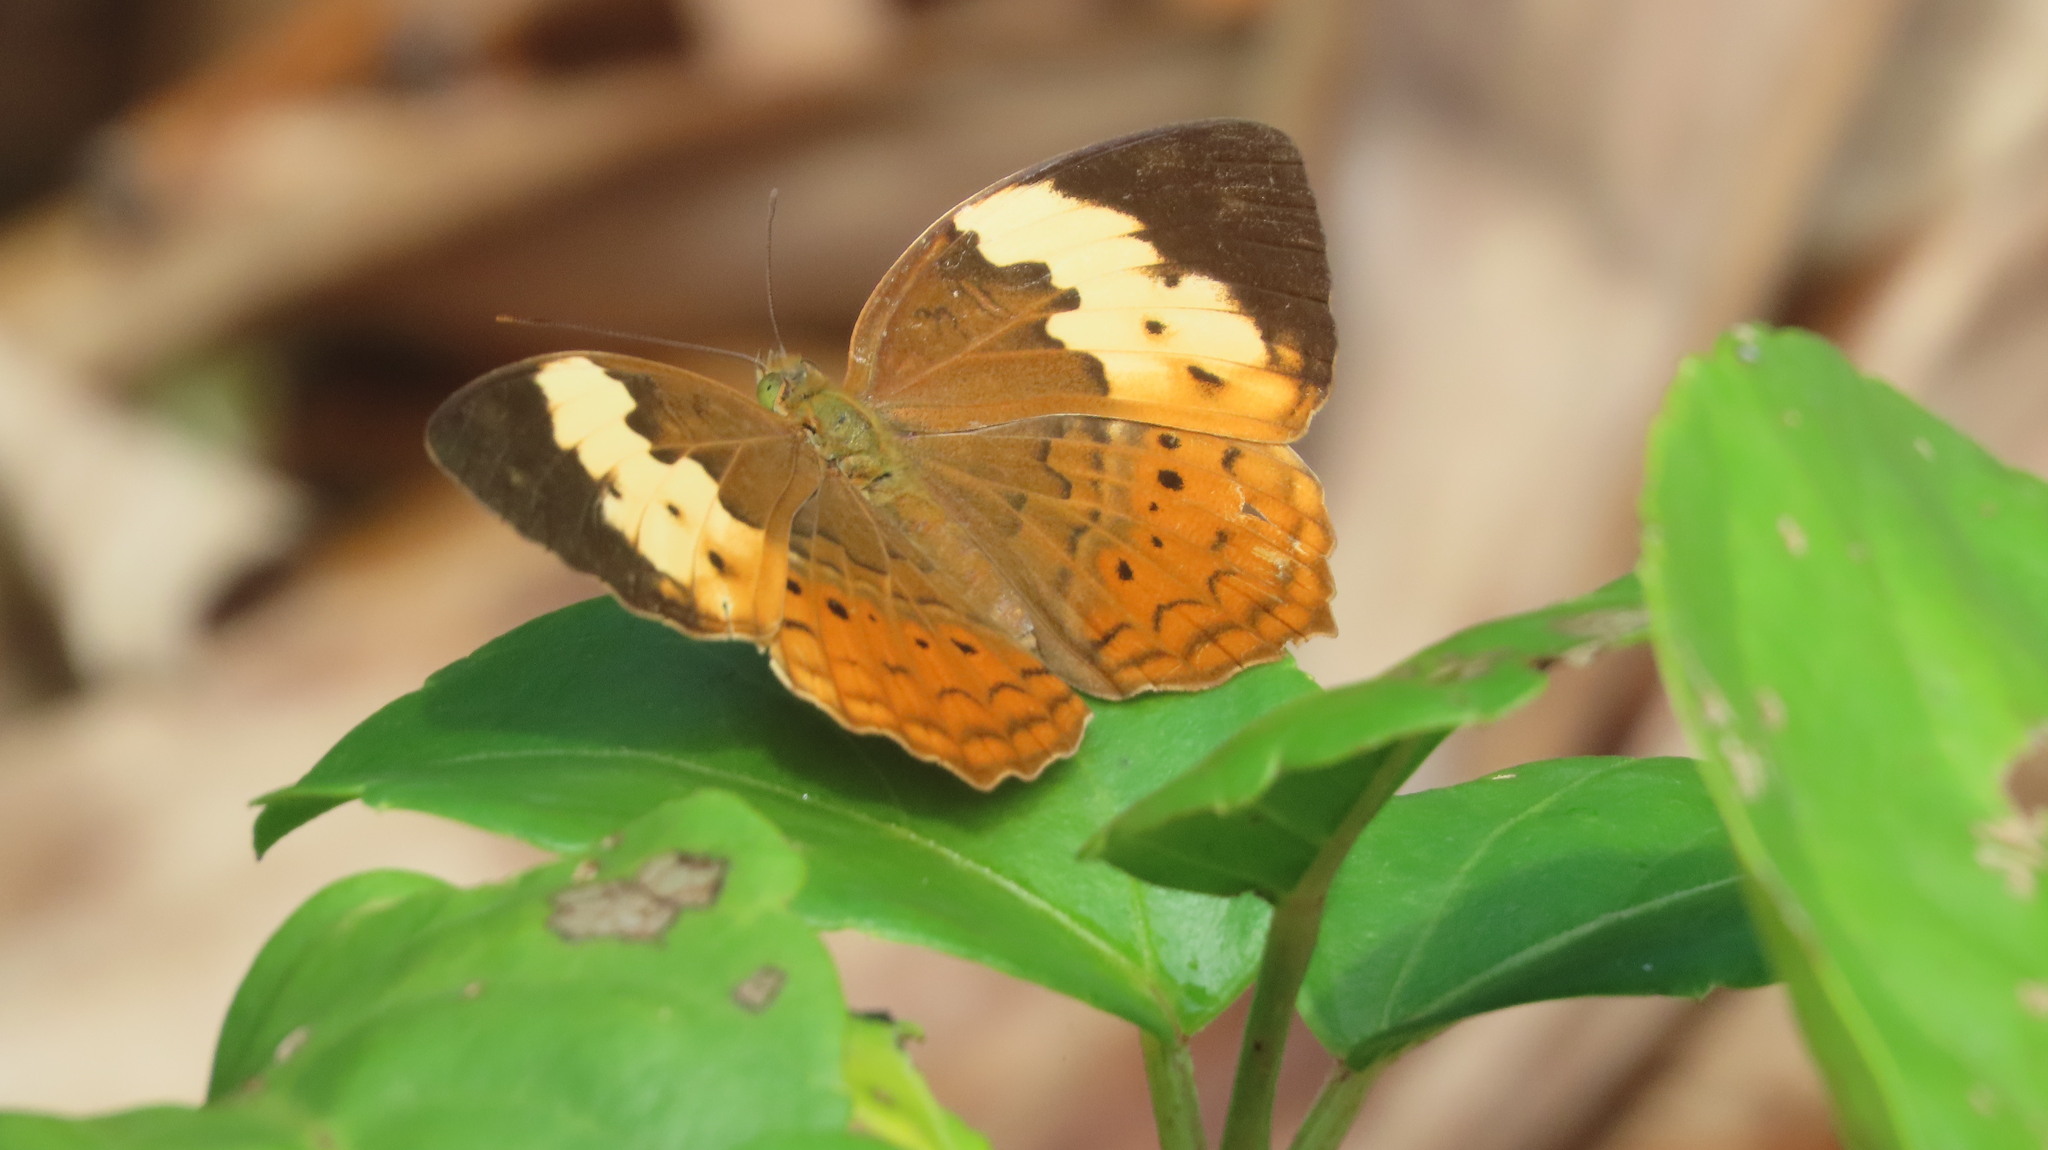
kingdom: Animalia
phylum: Arthropoda
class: Insecta
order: Lepidoptera
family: Nymphalidae
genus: Cupha
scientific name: Cupha erymanthis
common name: Rustic
